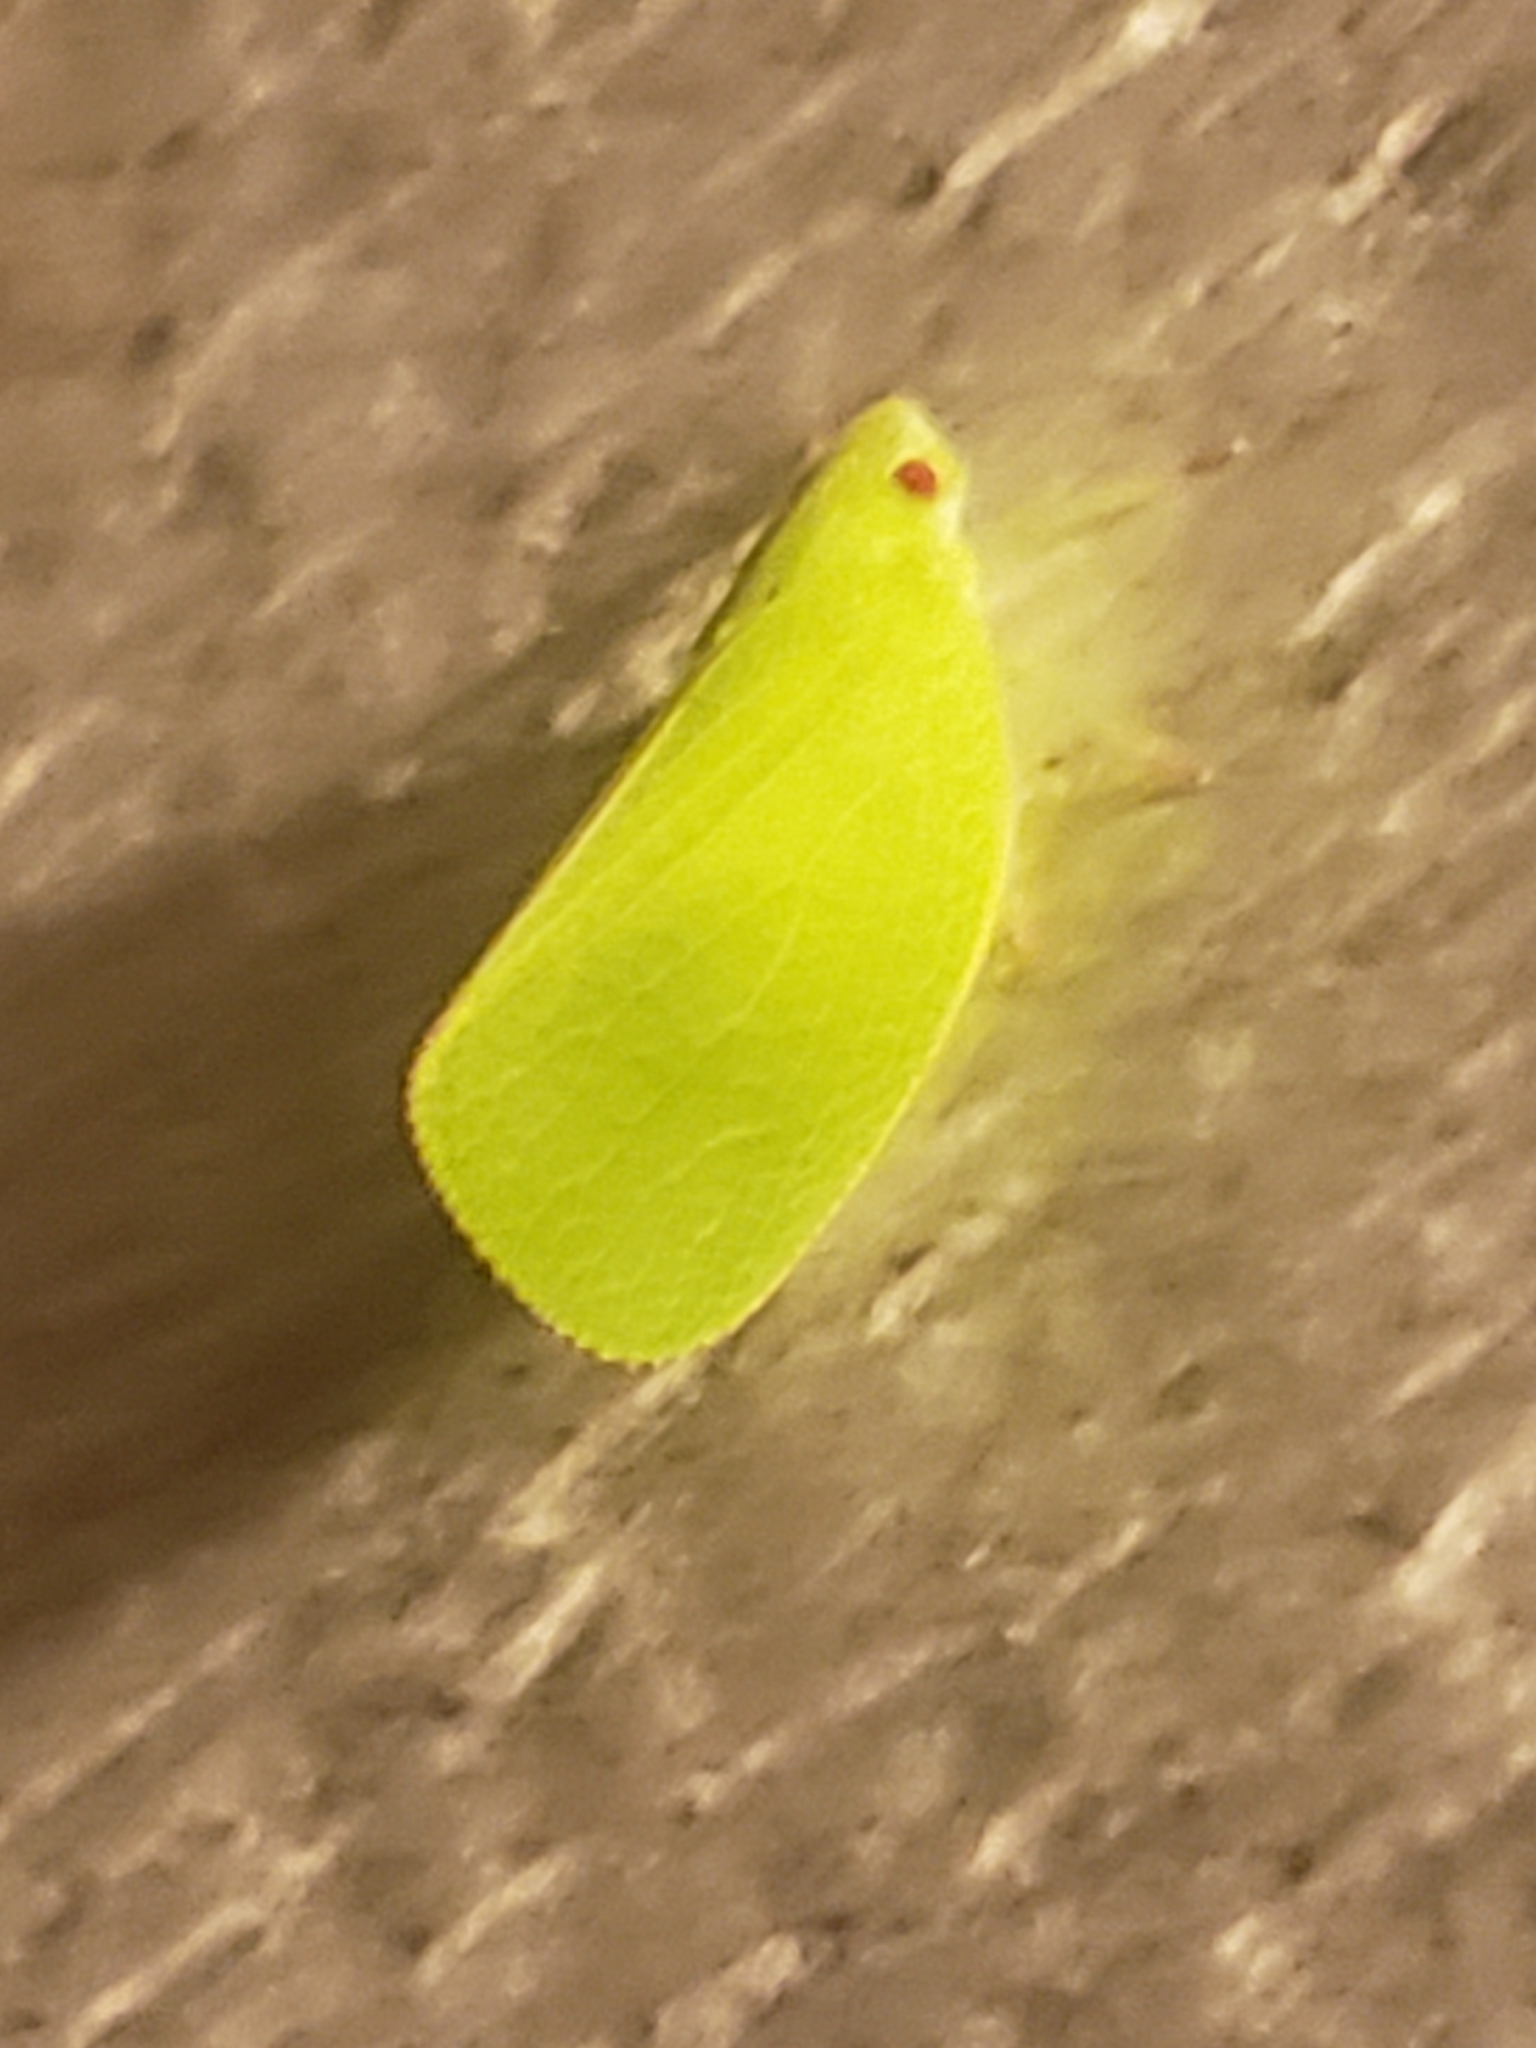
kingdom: Animalia
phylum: Arthropoda
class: Insecta
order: Hemiptera
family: Acanaloniidae
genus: Acanalonia
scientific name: Acanalonia conica
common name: Green cone-headed planthopper
